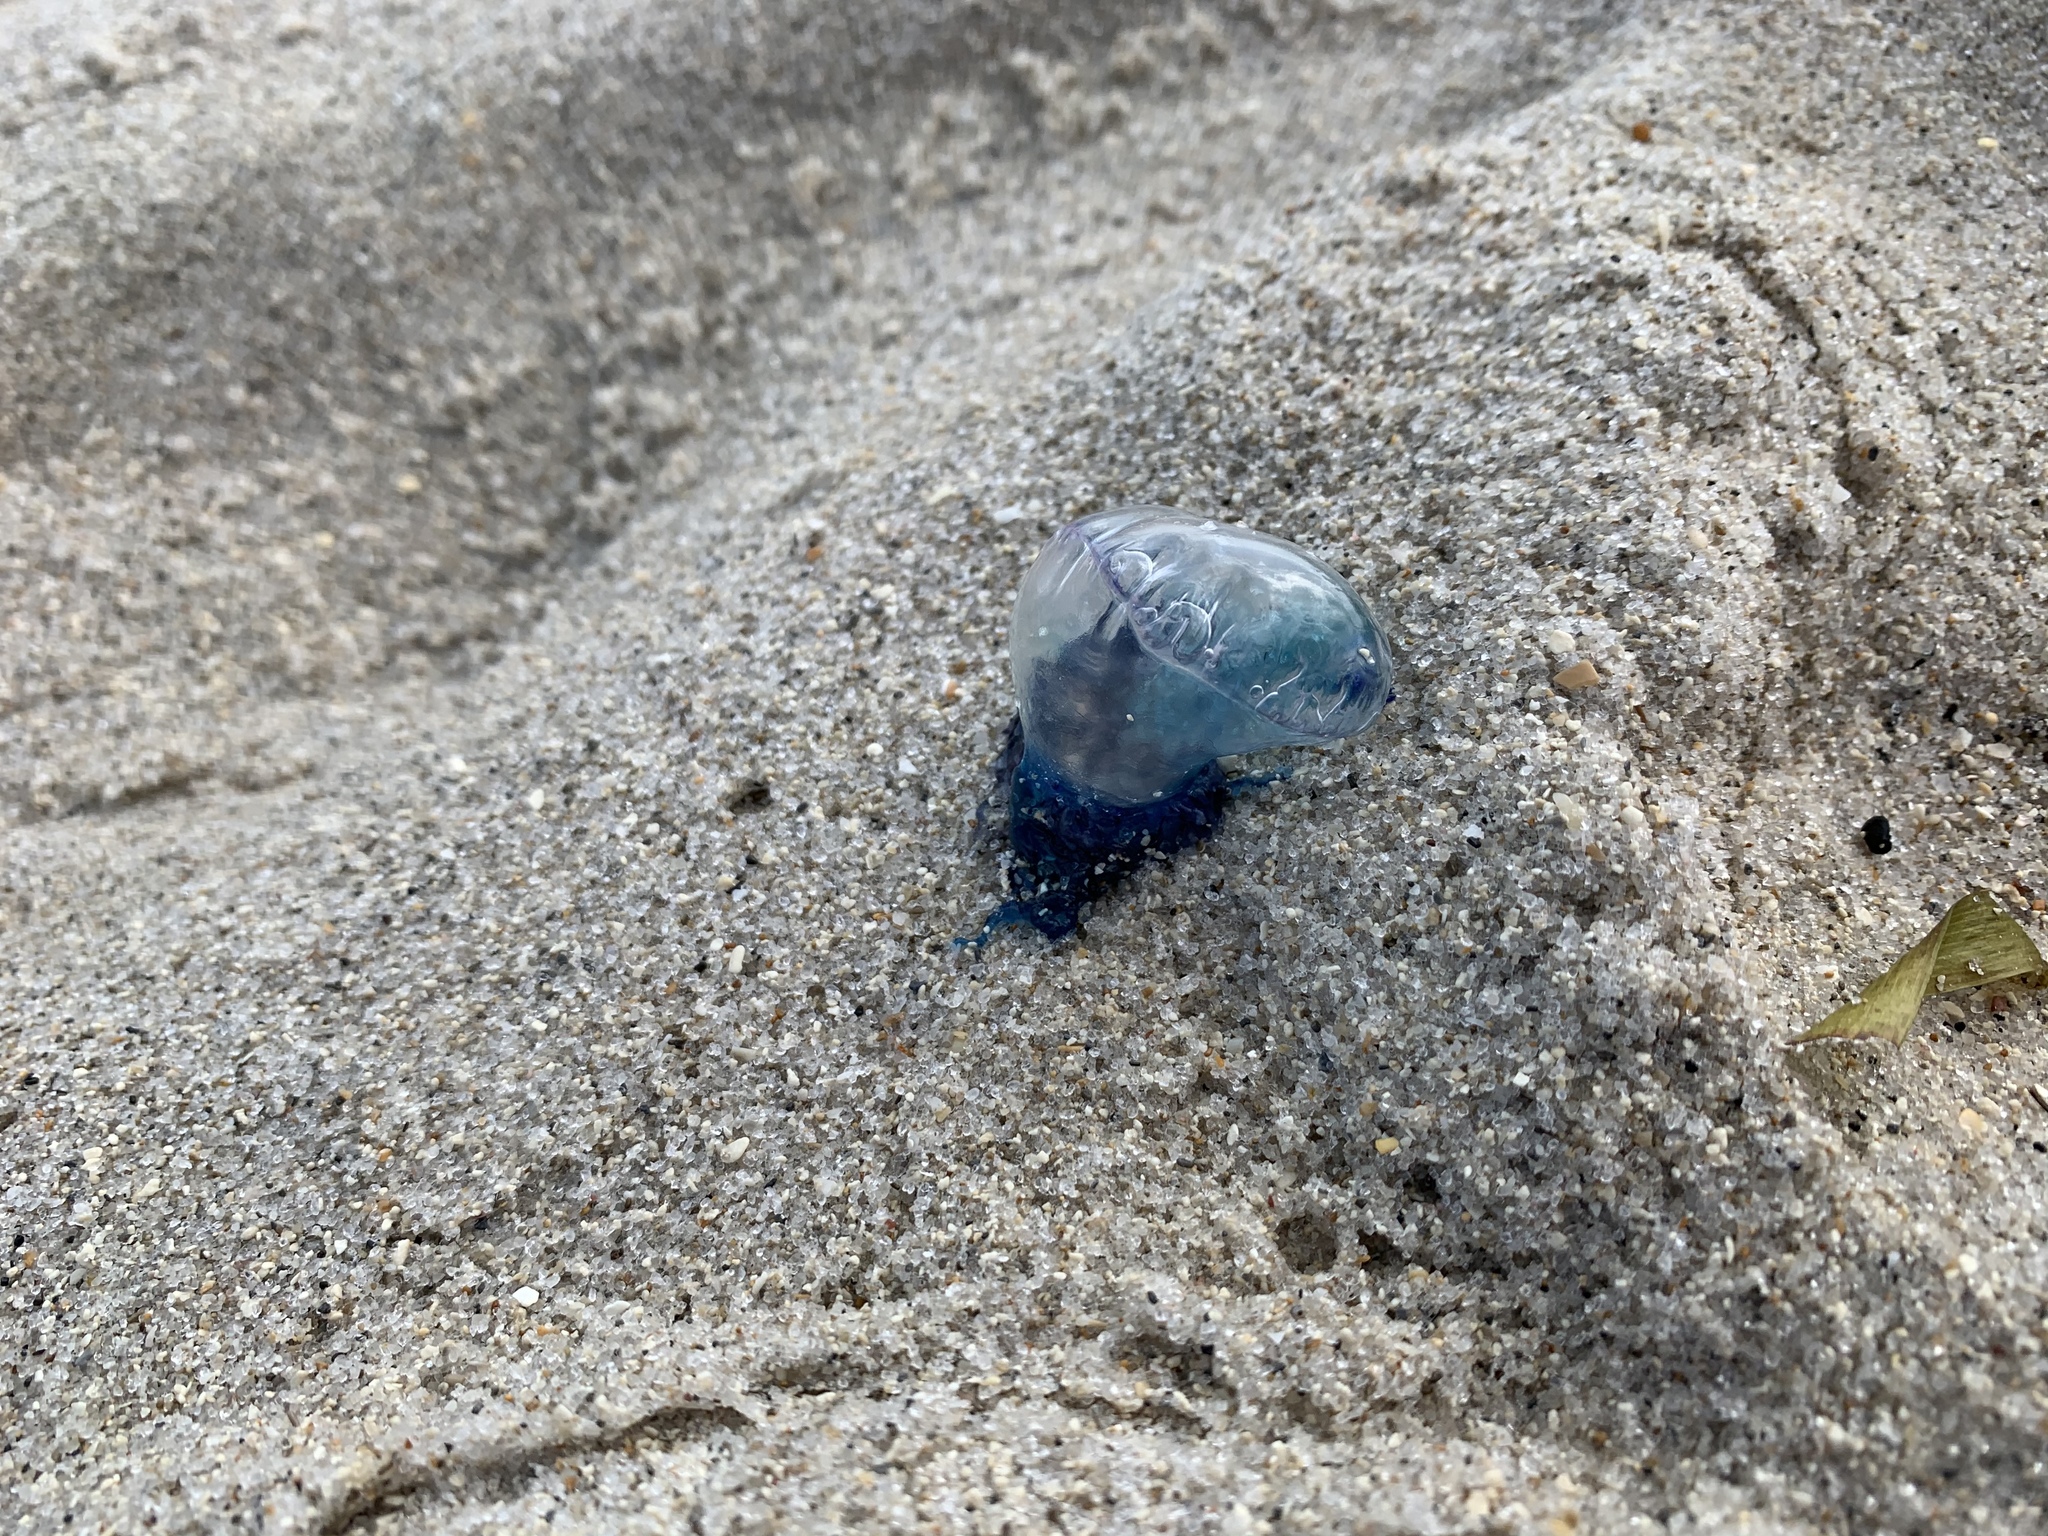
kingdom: Animalia
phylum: Cnidaria
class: Hydrozoa
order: Siphonophorae
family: Physaliidae
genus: Physalia
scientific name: Physalia physalis
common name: Portuguese man-of-war
